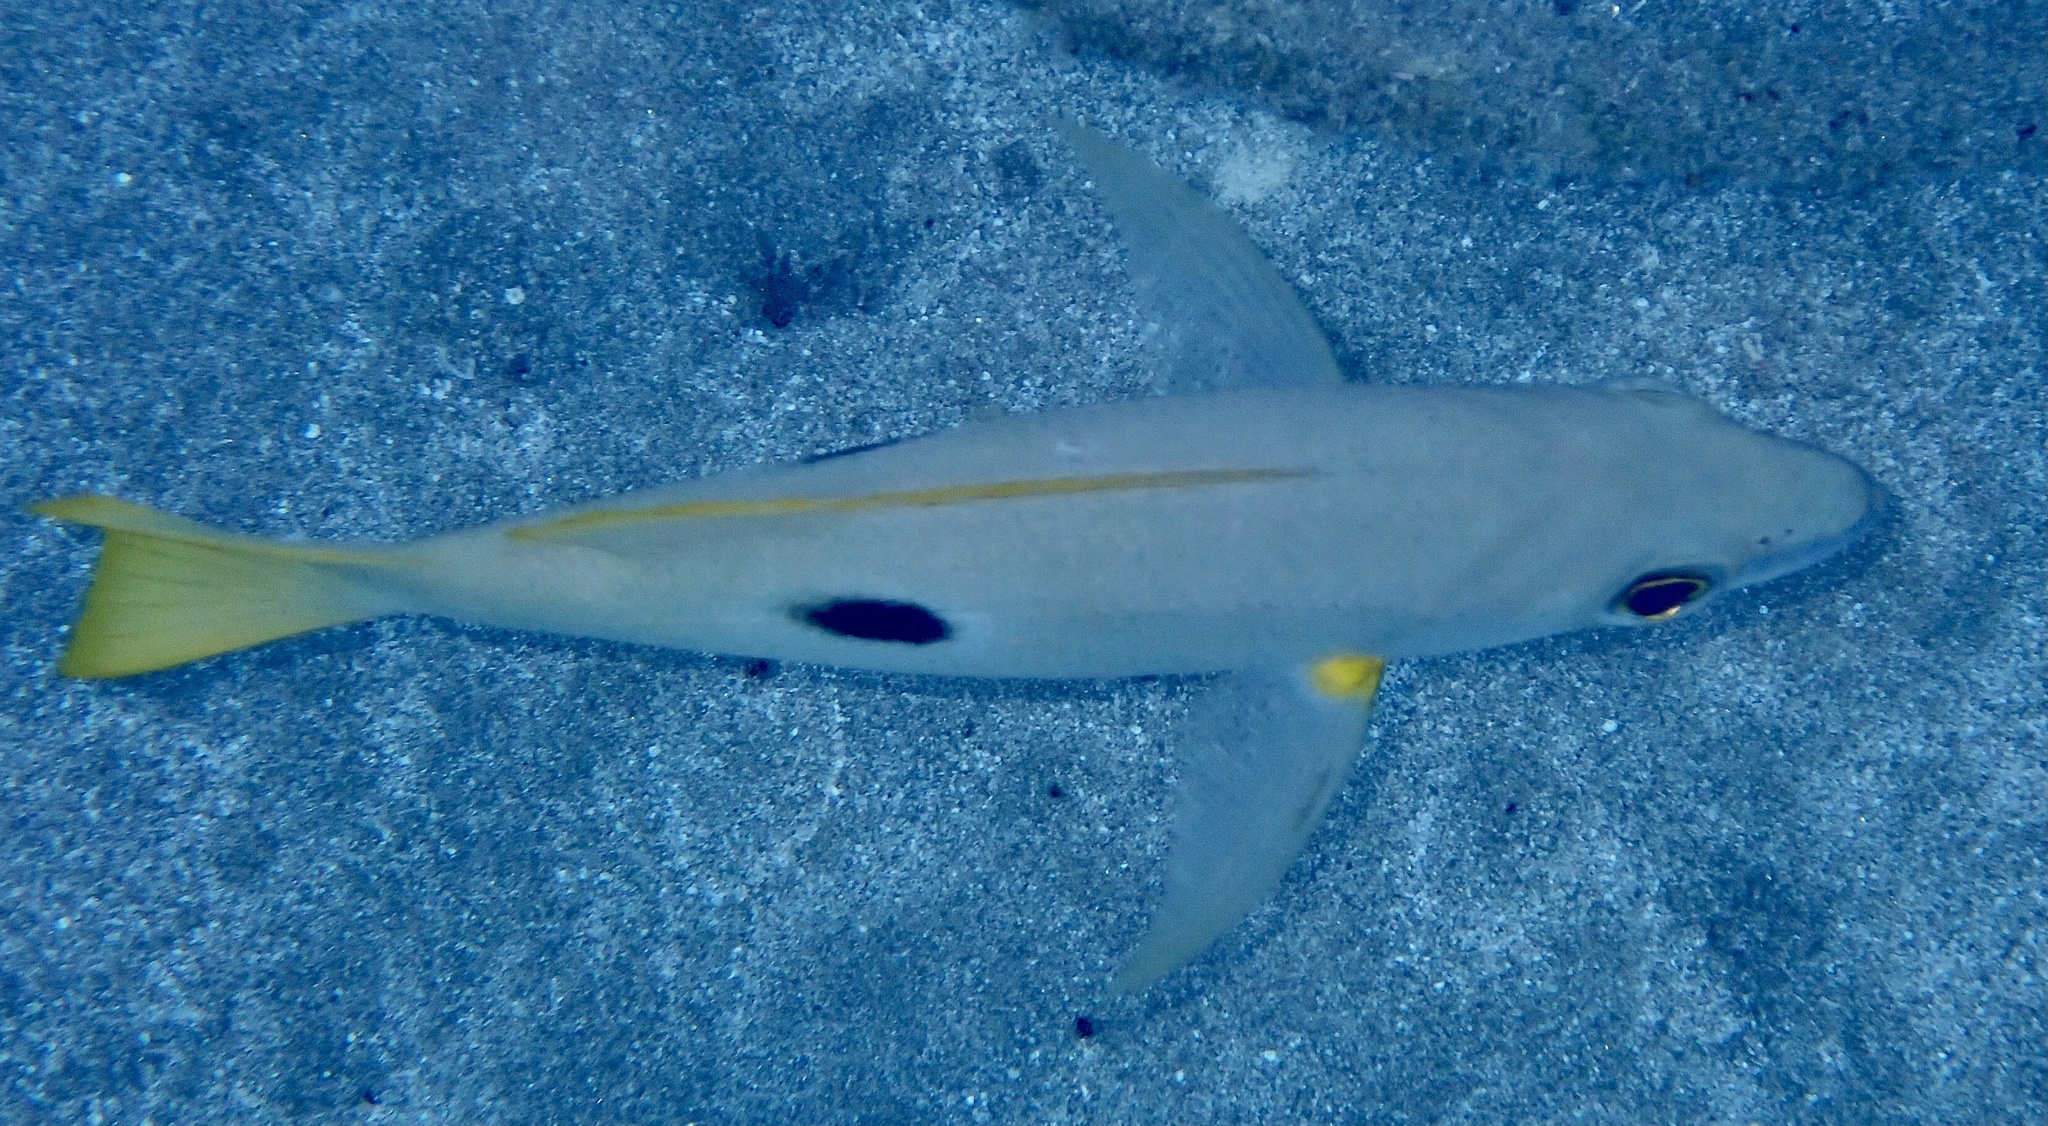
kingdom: Animalia
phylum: Chordata
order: Perciformes
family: Lutjanidae
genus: Lutjanus
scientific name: Lutjanus ehrenbergii
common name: Blackspot snapper
